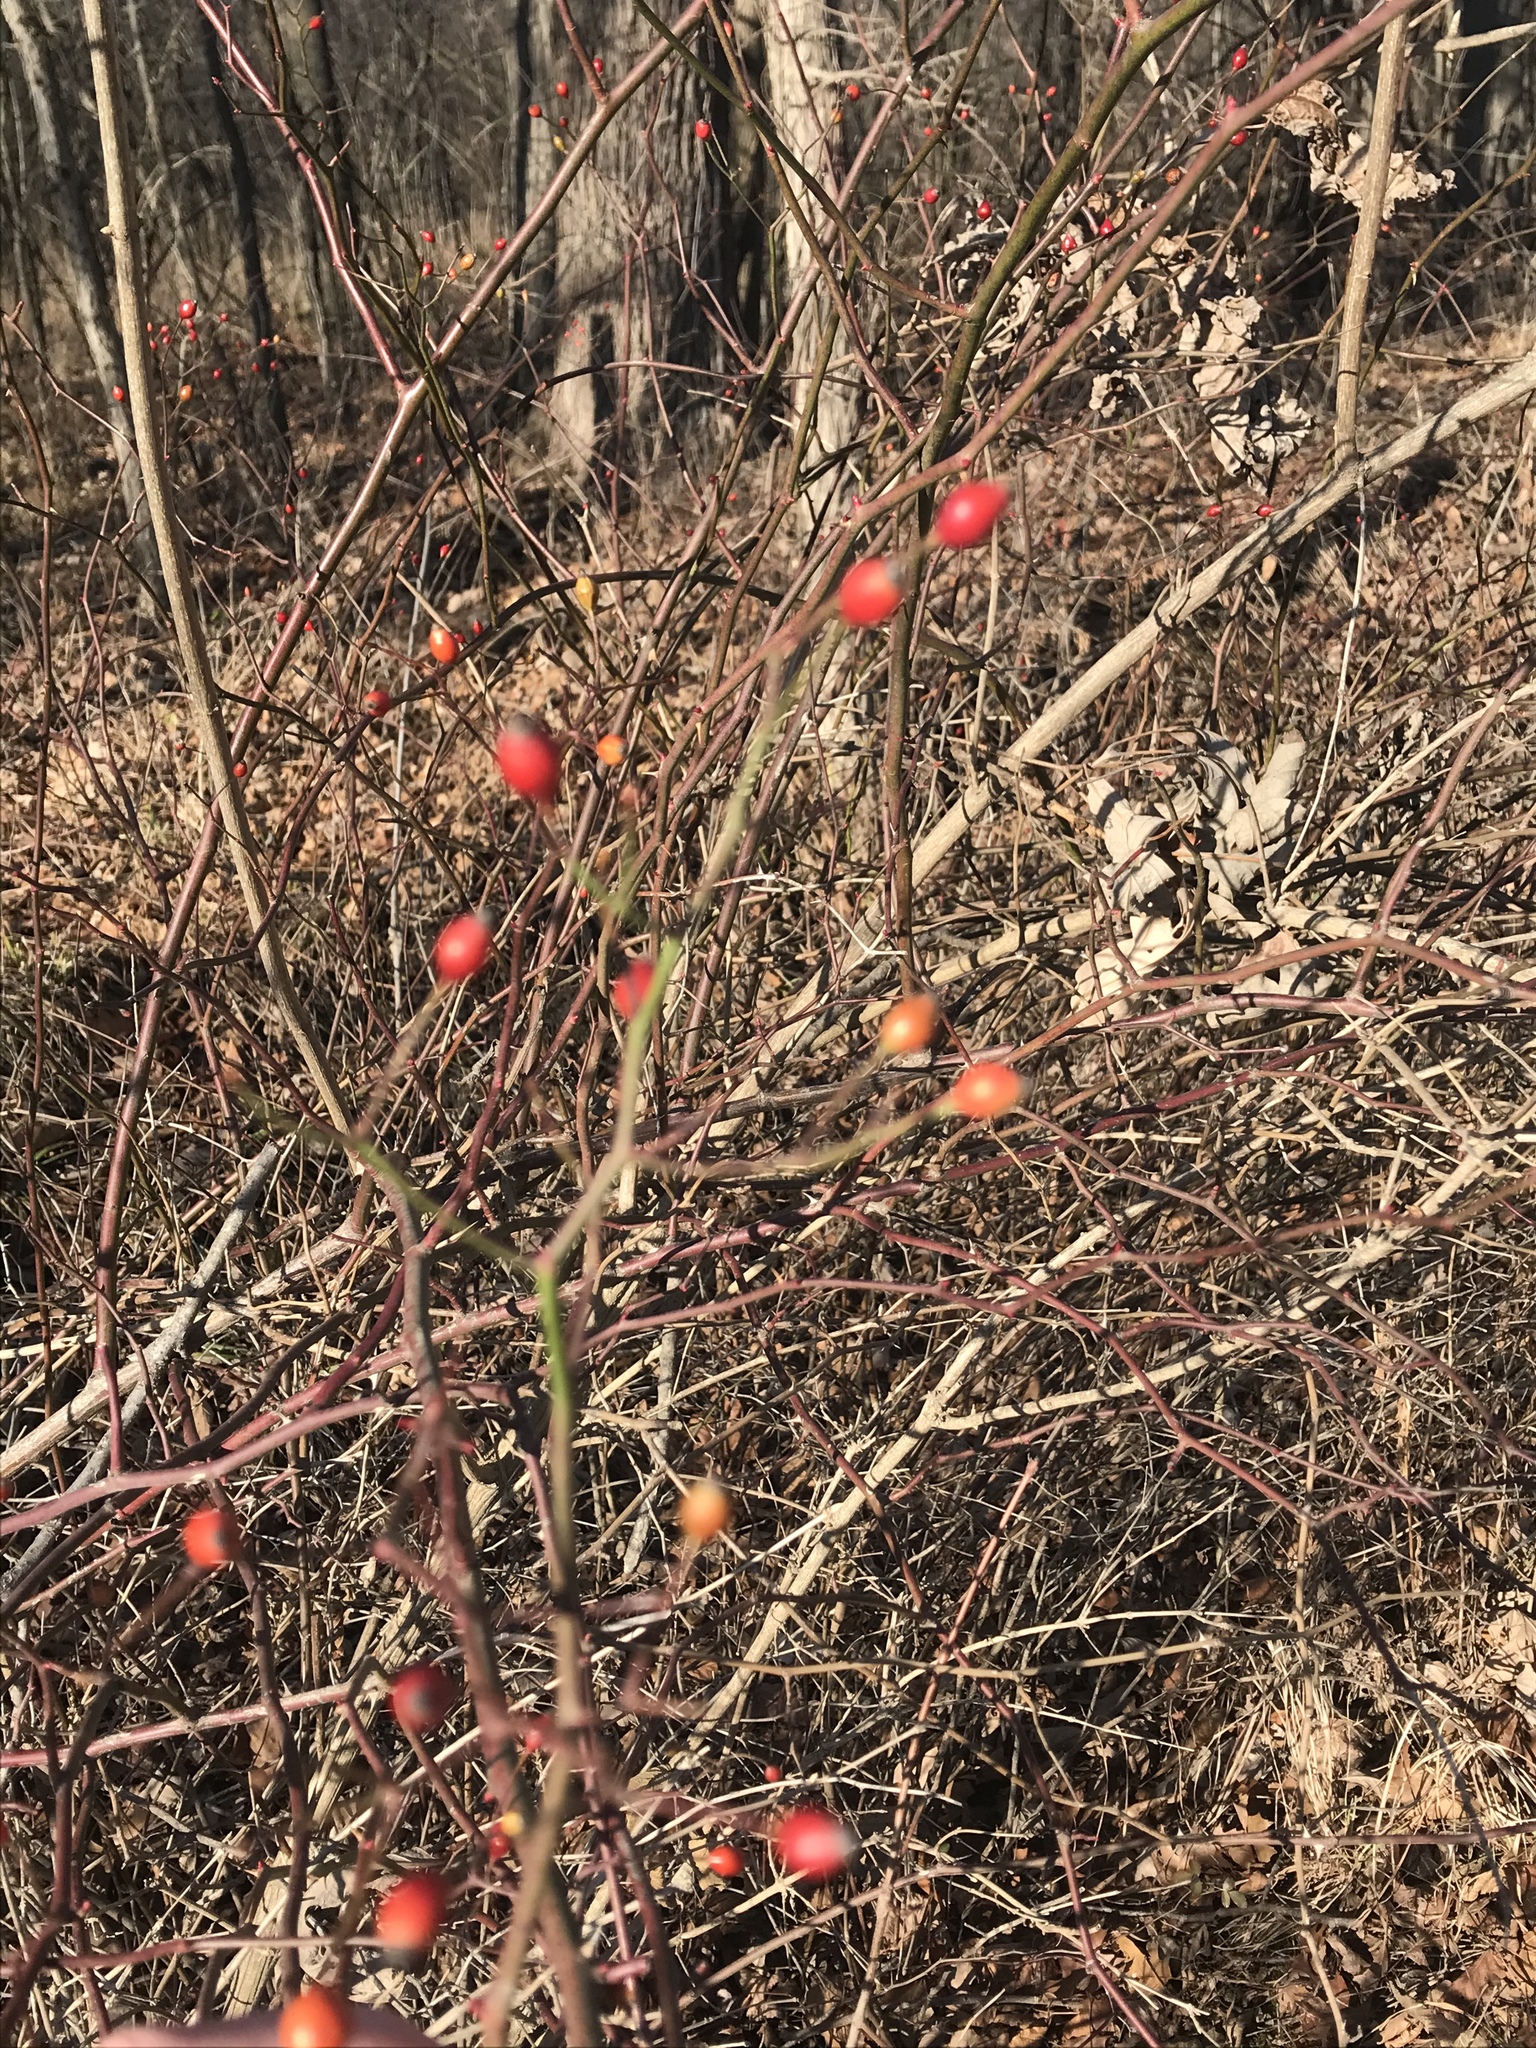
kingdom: Plantae
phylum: Tracheophyta
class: Magnoliopsida
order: Rosales
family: Rosaceae
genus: Rosa
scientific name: Rosa multiflora
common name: Multiflora rose
